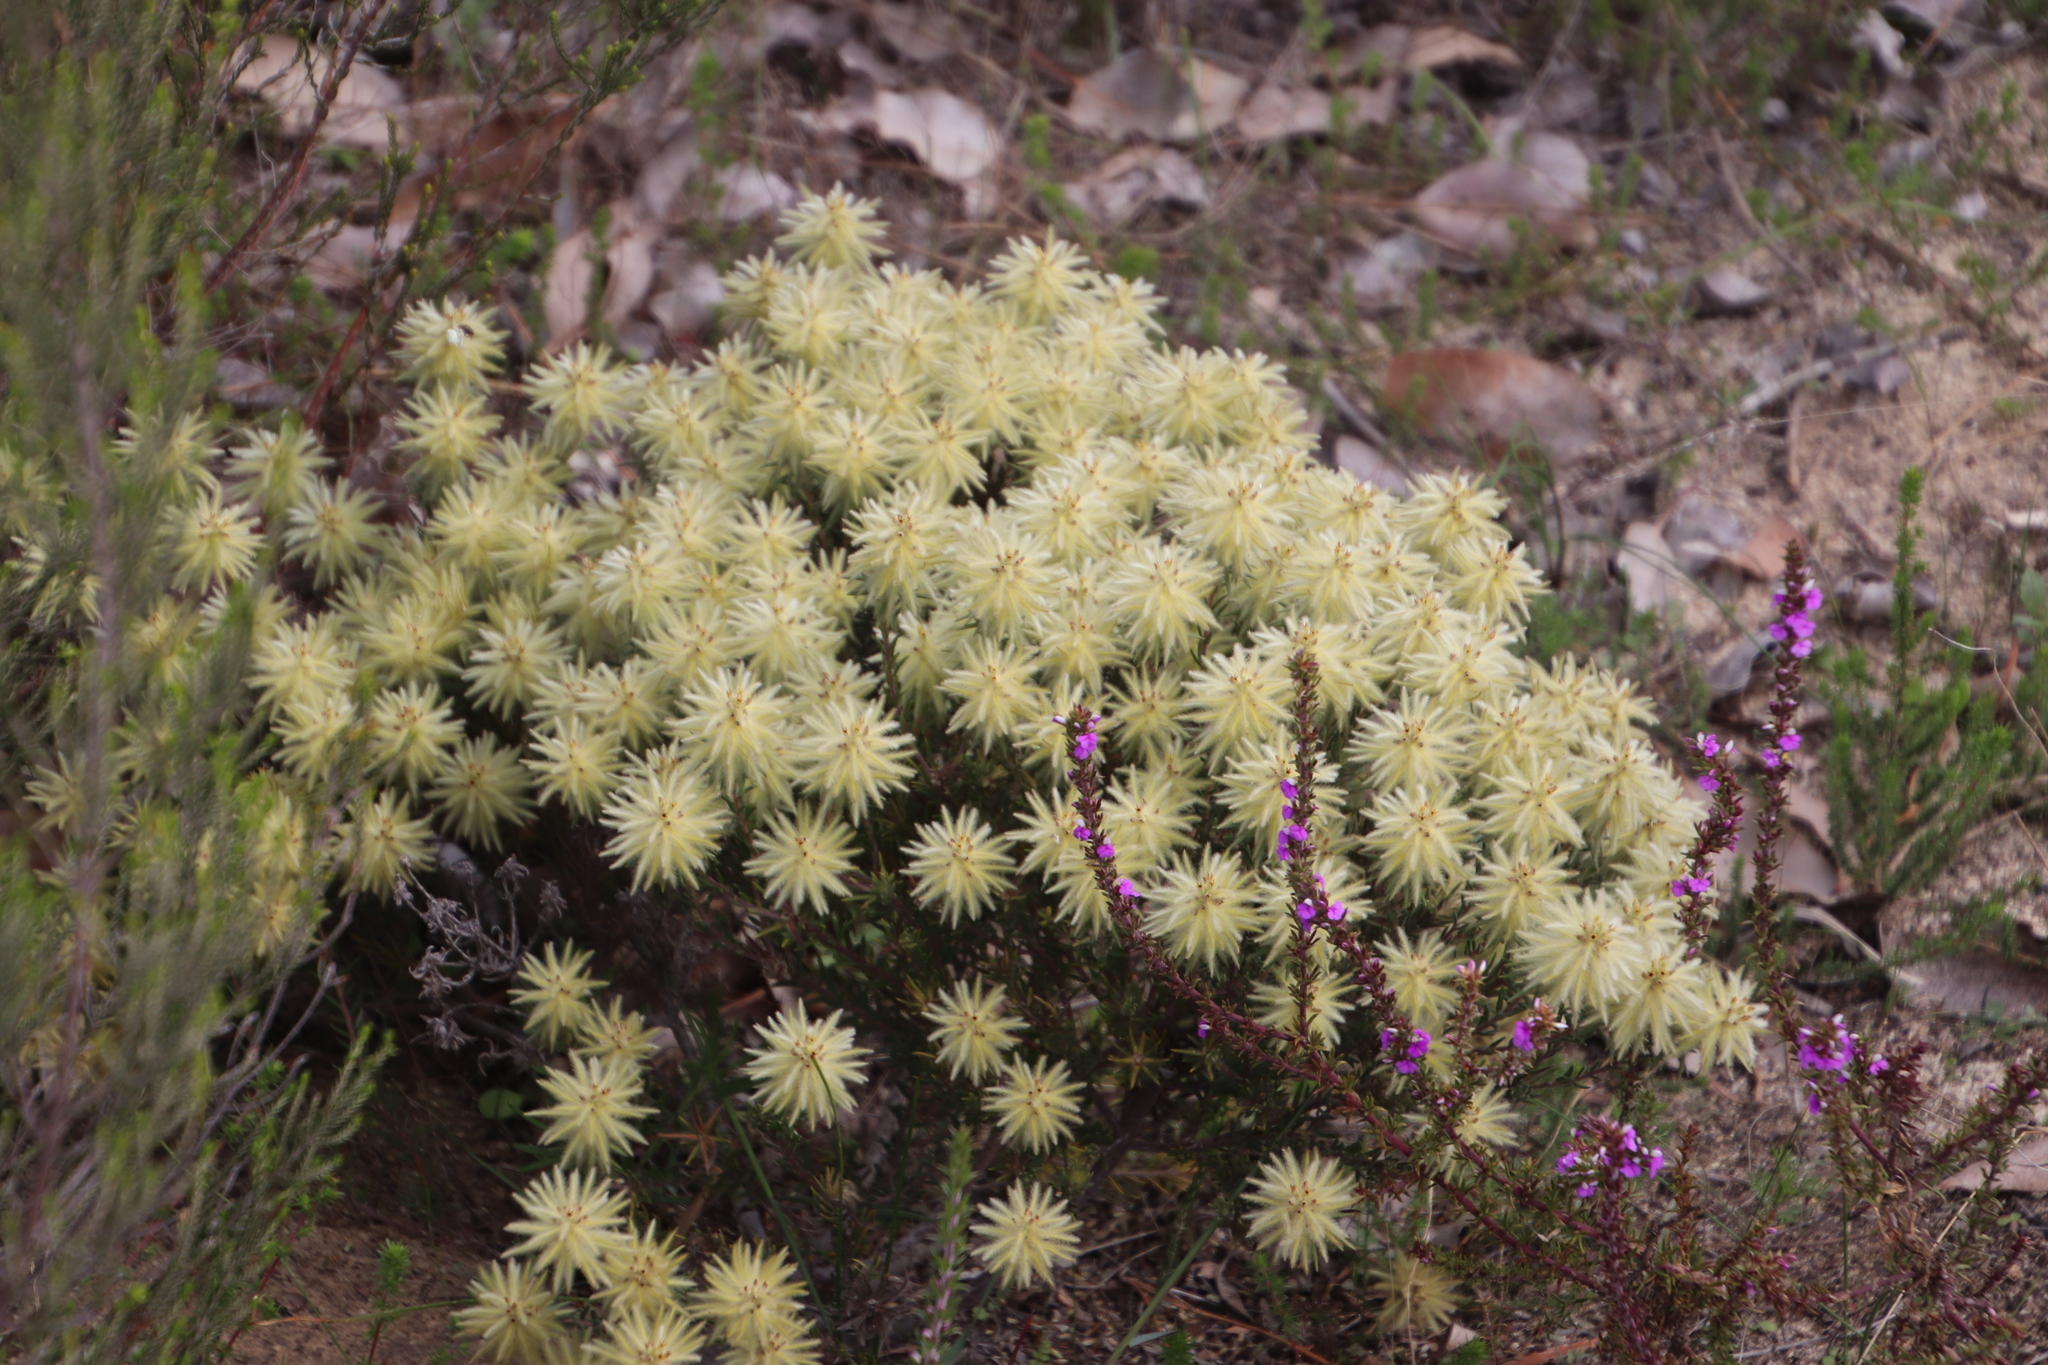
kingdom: Plantae
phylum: Tracheophyta
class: Magnoliopsida
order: Rosales
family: Rhamnaceae
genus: Phylica
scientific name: Phylica pubescens
